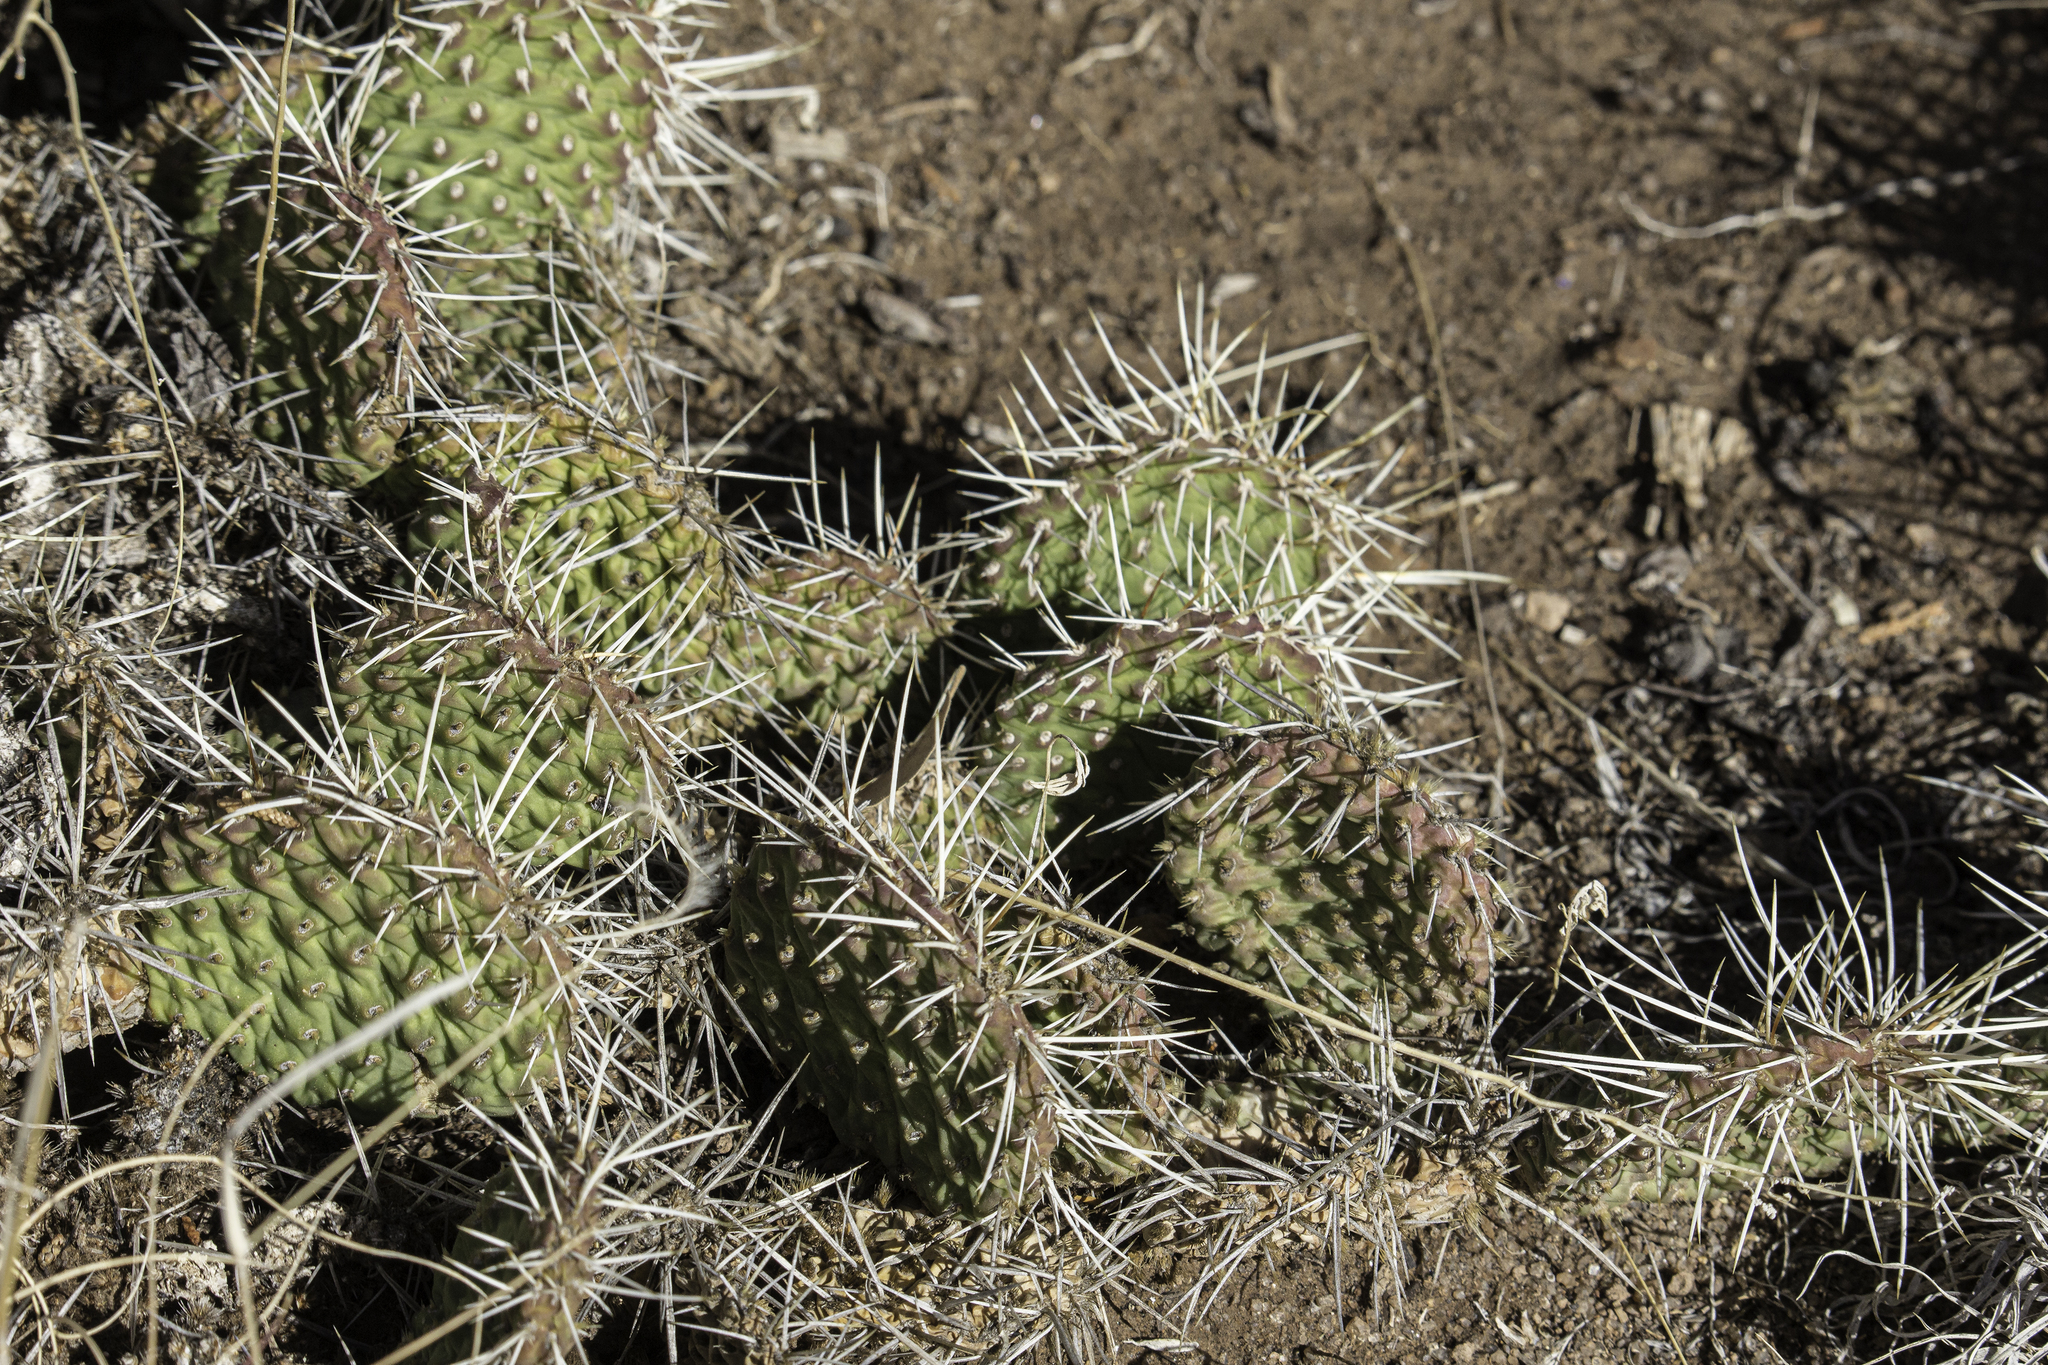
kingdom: Plantae
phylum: Tracheophyta
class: Magnoliopsida
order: Caryophyllales
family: Cactaceae
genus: Opuntia
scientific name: Opuntia polyacantha
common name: Plains prickly-pear
